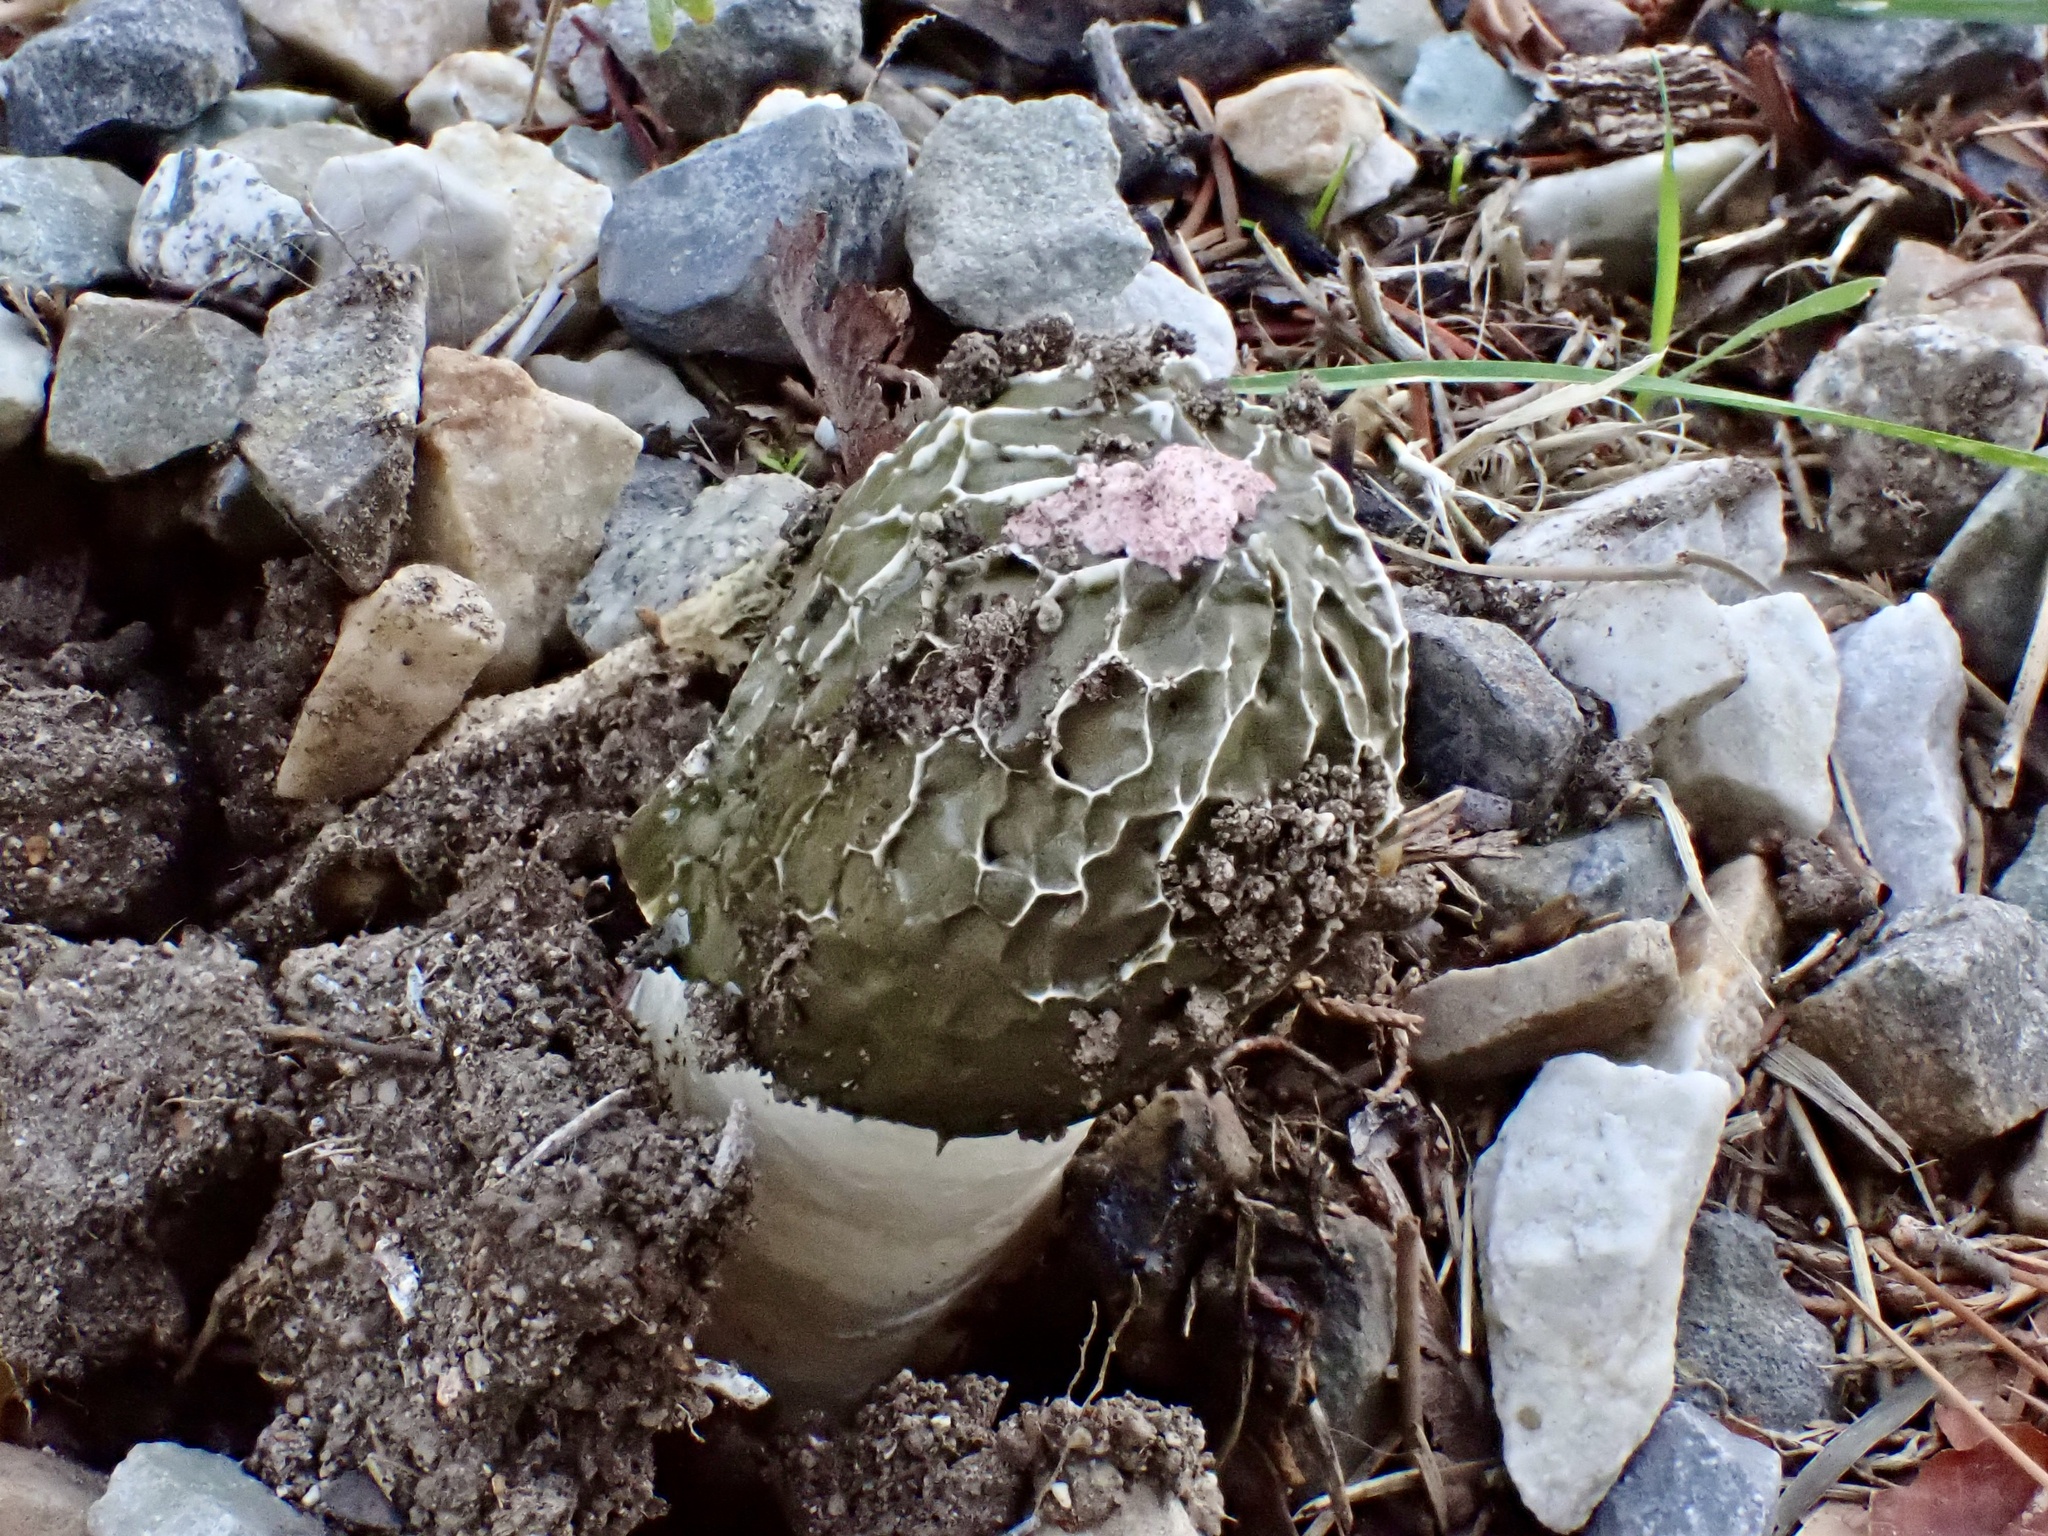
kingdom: Fungi
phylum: Basidiomycota
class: Agaricomycetes
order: Phallales
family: Phallaceae
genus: Phallus
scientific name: Phallus hadriani
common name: Sand stinkhorn
